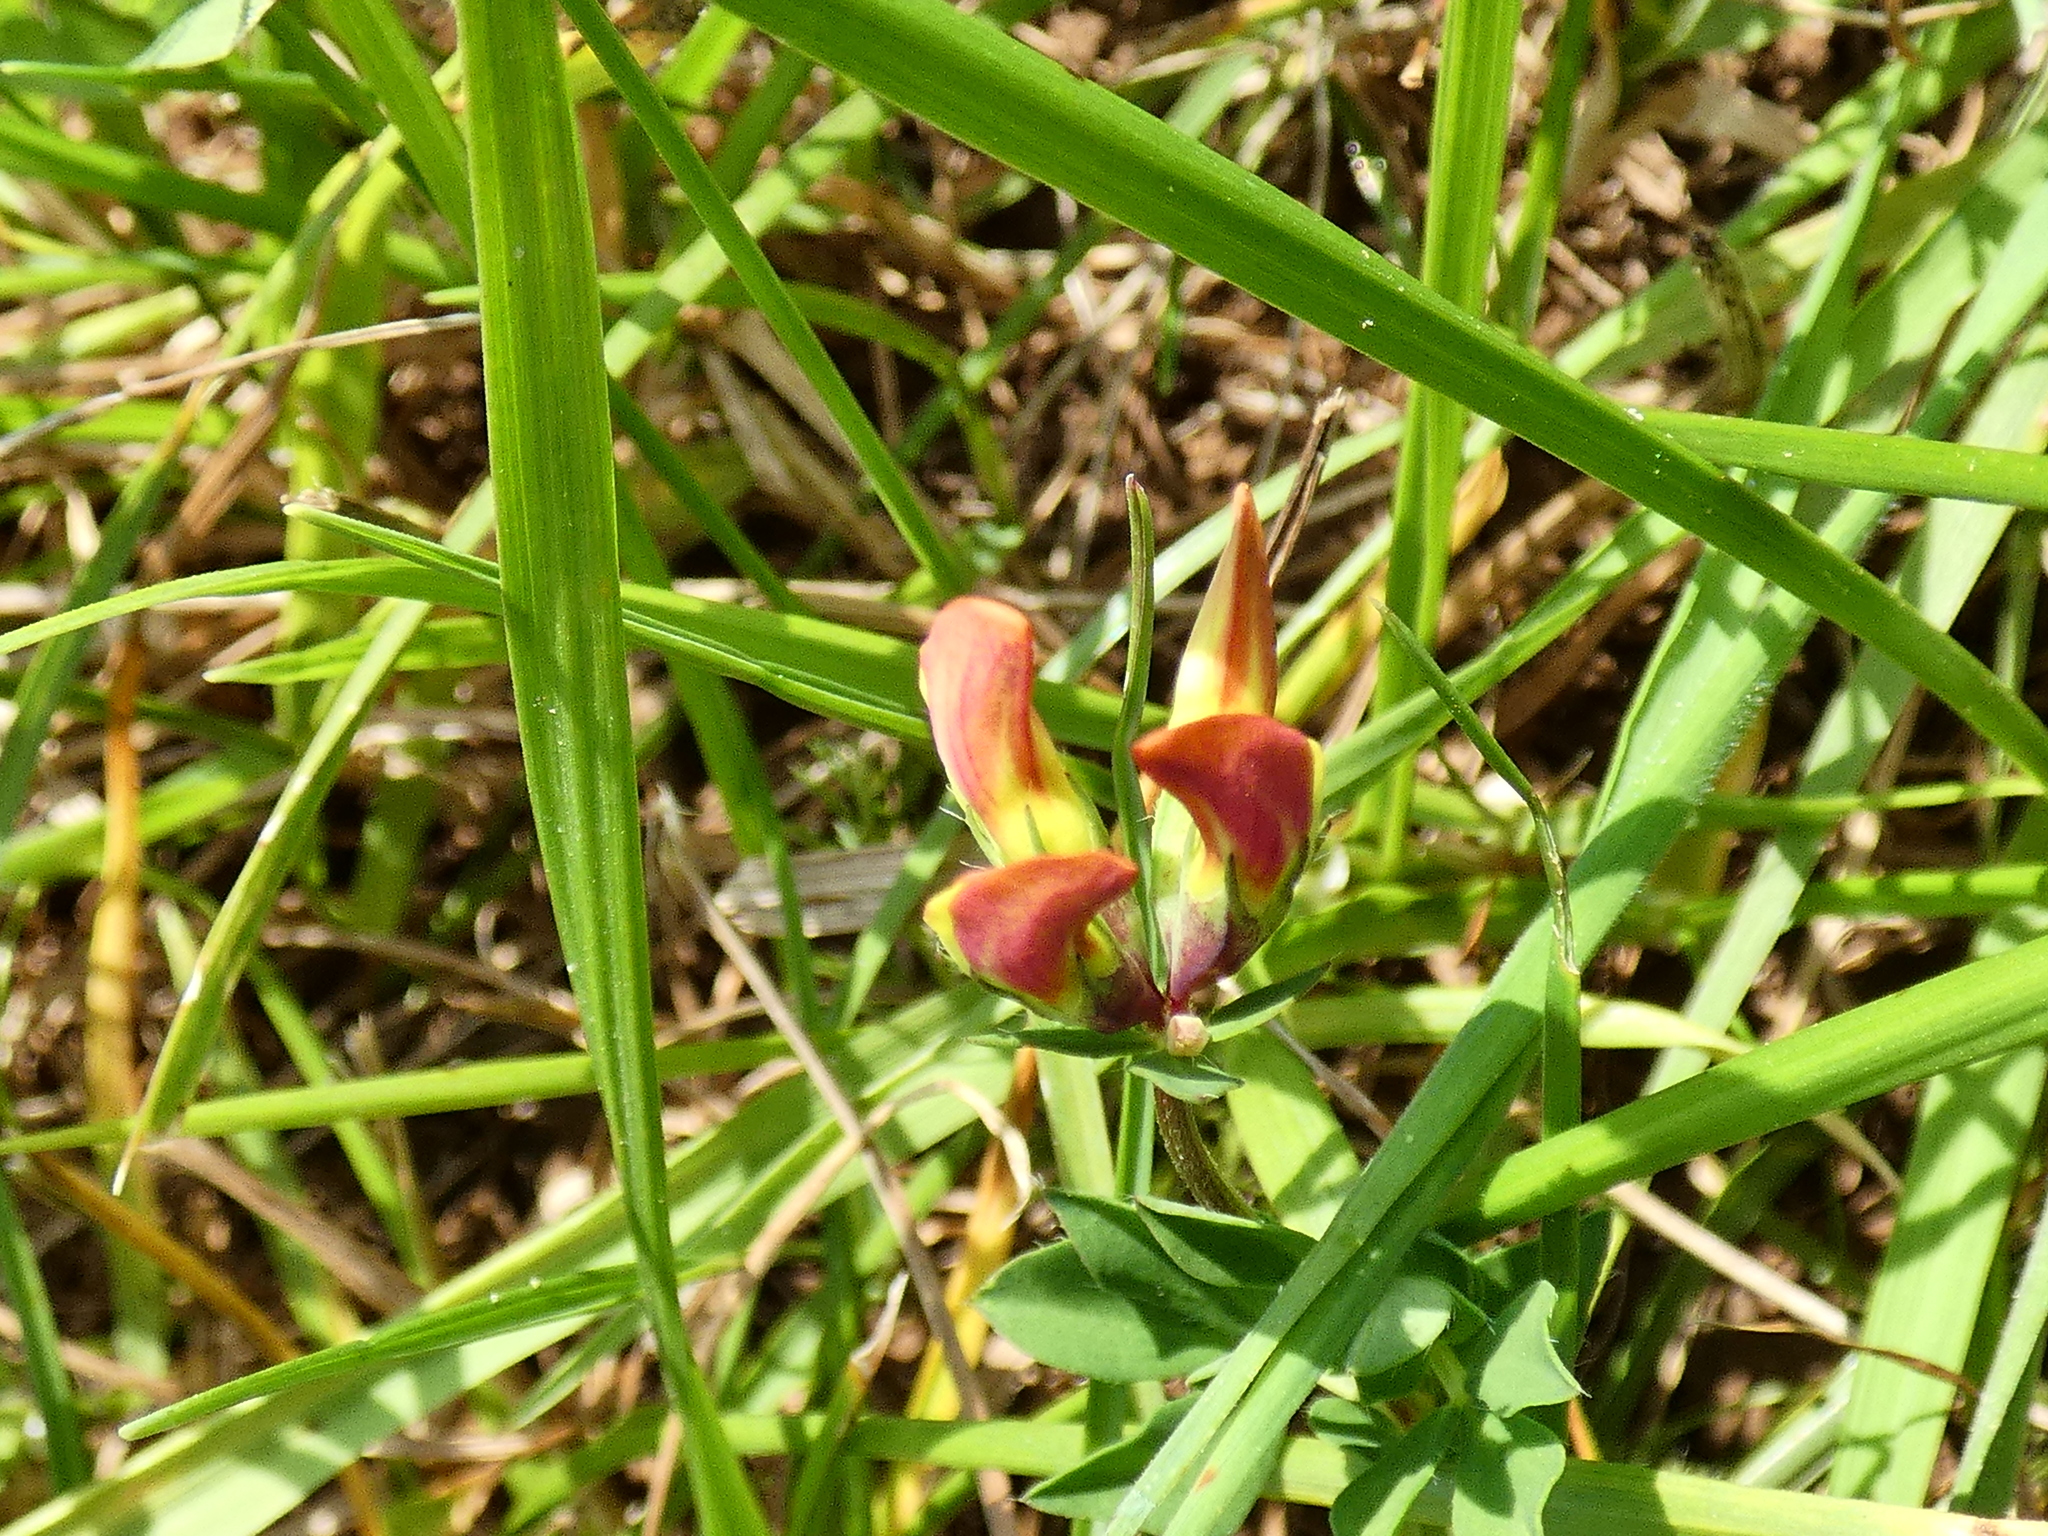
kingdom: Plantae
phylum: Tracheophyta
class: Magnoliopsida
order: Fabales
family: Fabaceae
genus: Lotus
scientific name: Lotus corniculatus
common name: Common bird's-foot-trefoil
